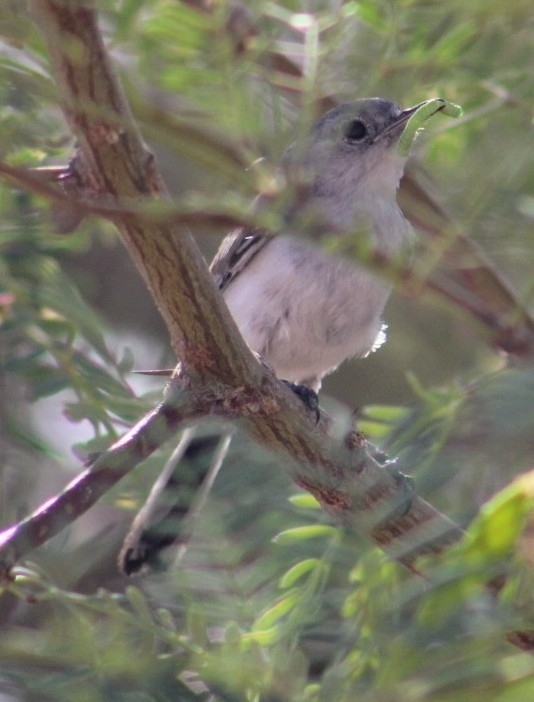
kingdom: Animalia
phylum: Chordata
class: Aves
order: Passeriformes
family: Polioptilidae
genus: Polioptila
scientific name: Polioptila melanura
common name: Black-tailed gnatcatcher
